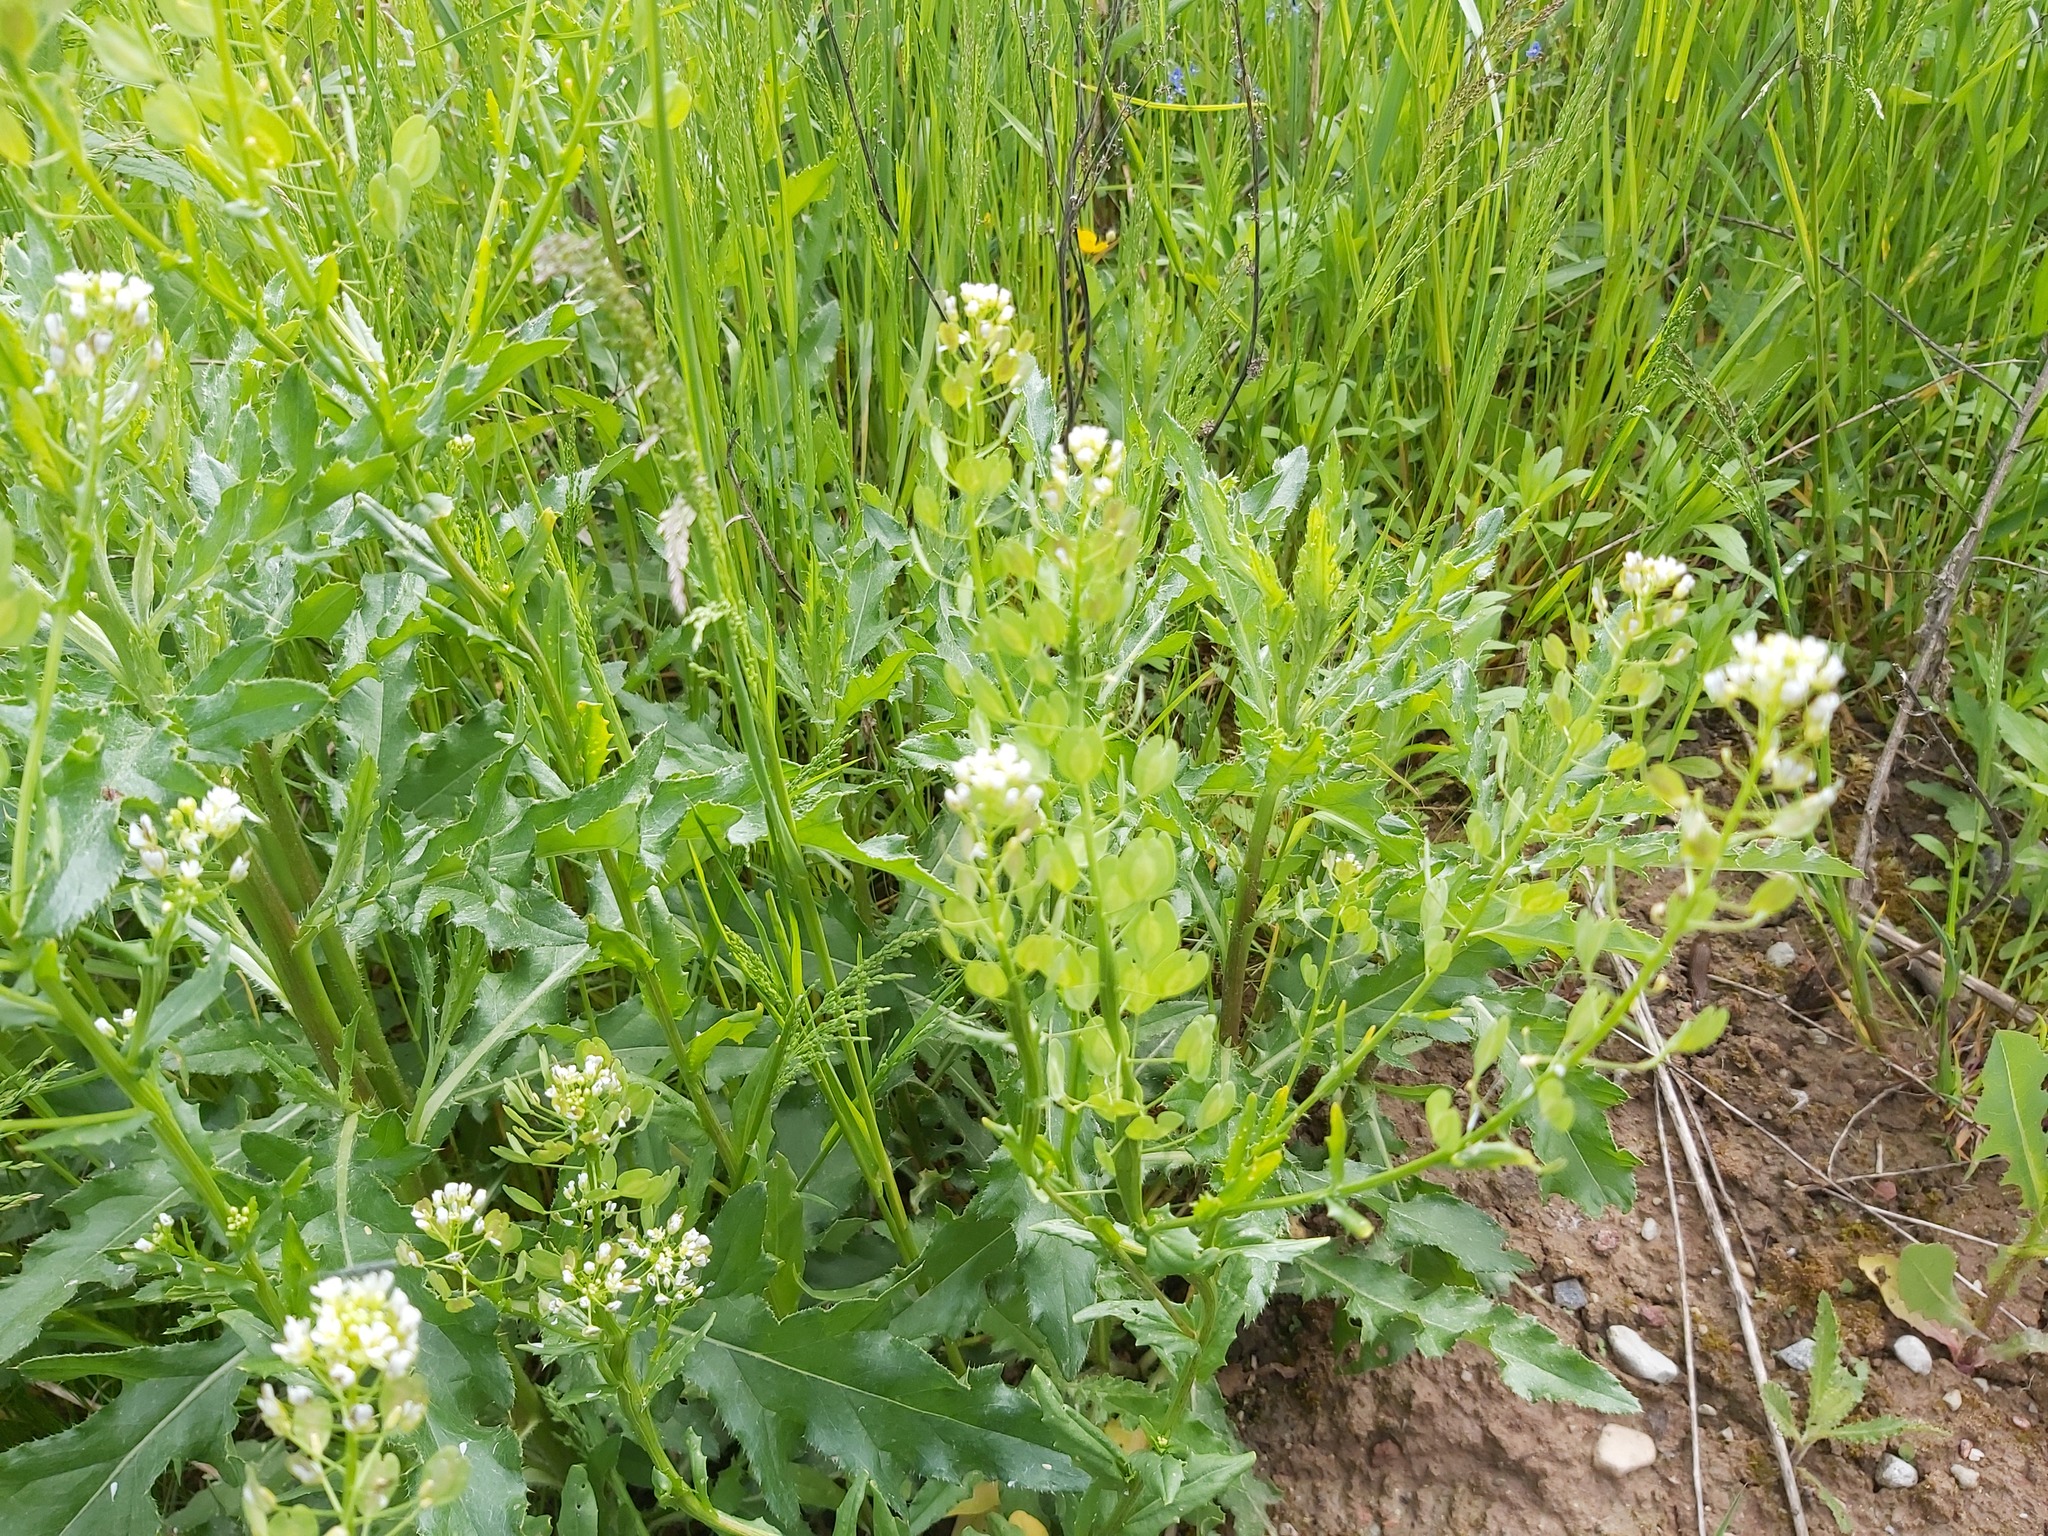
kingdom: Plantae
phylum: Tracheophyta
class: Magnoliopsida
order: Brassicales
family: Brassicaceae
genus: Thlaspi
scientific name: Thlaspi arvense
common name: Field pennycress
